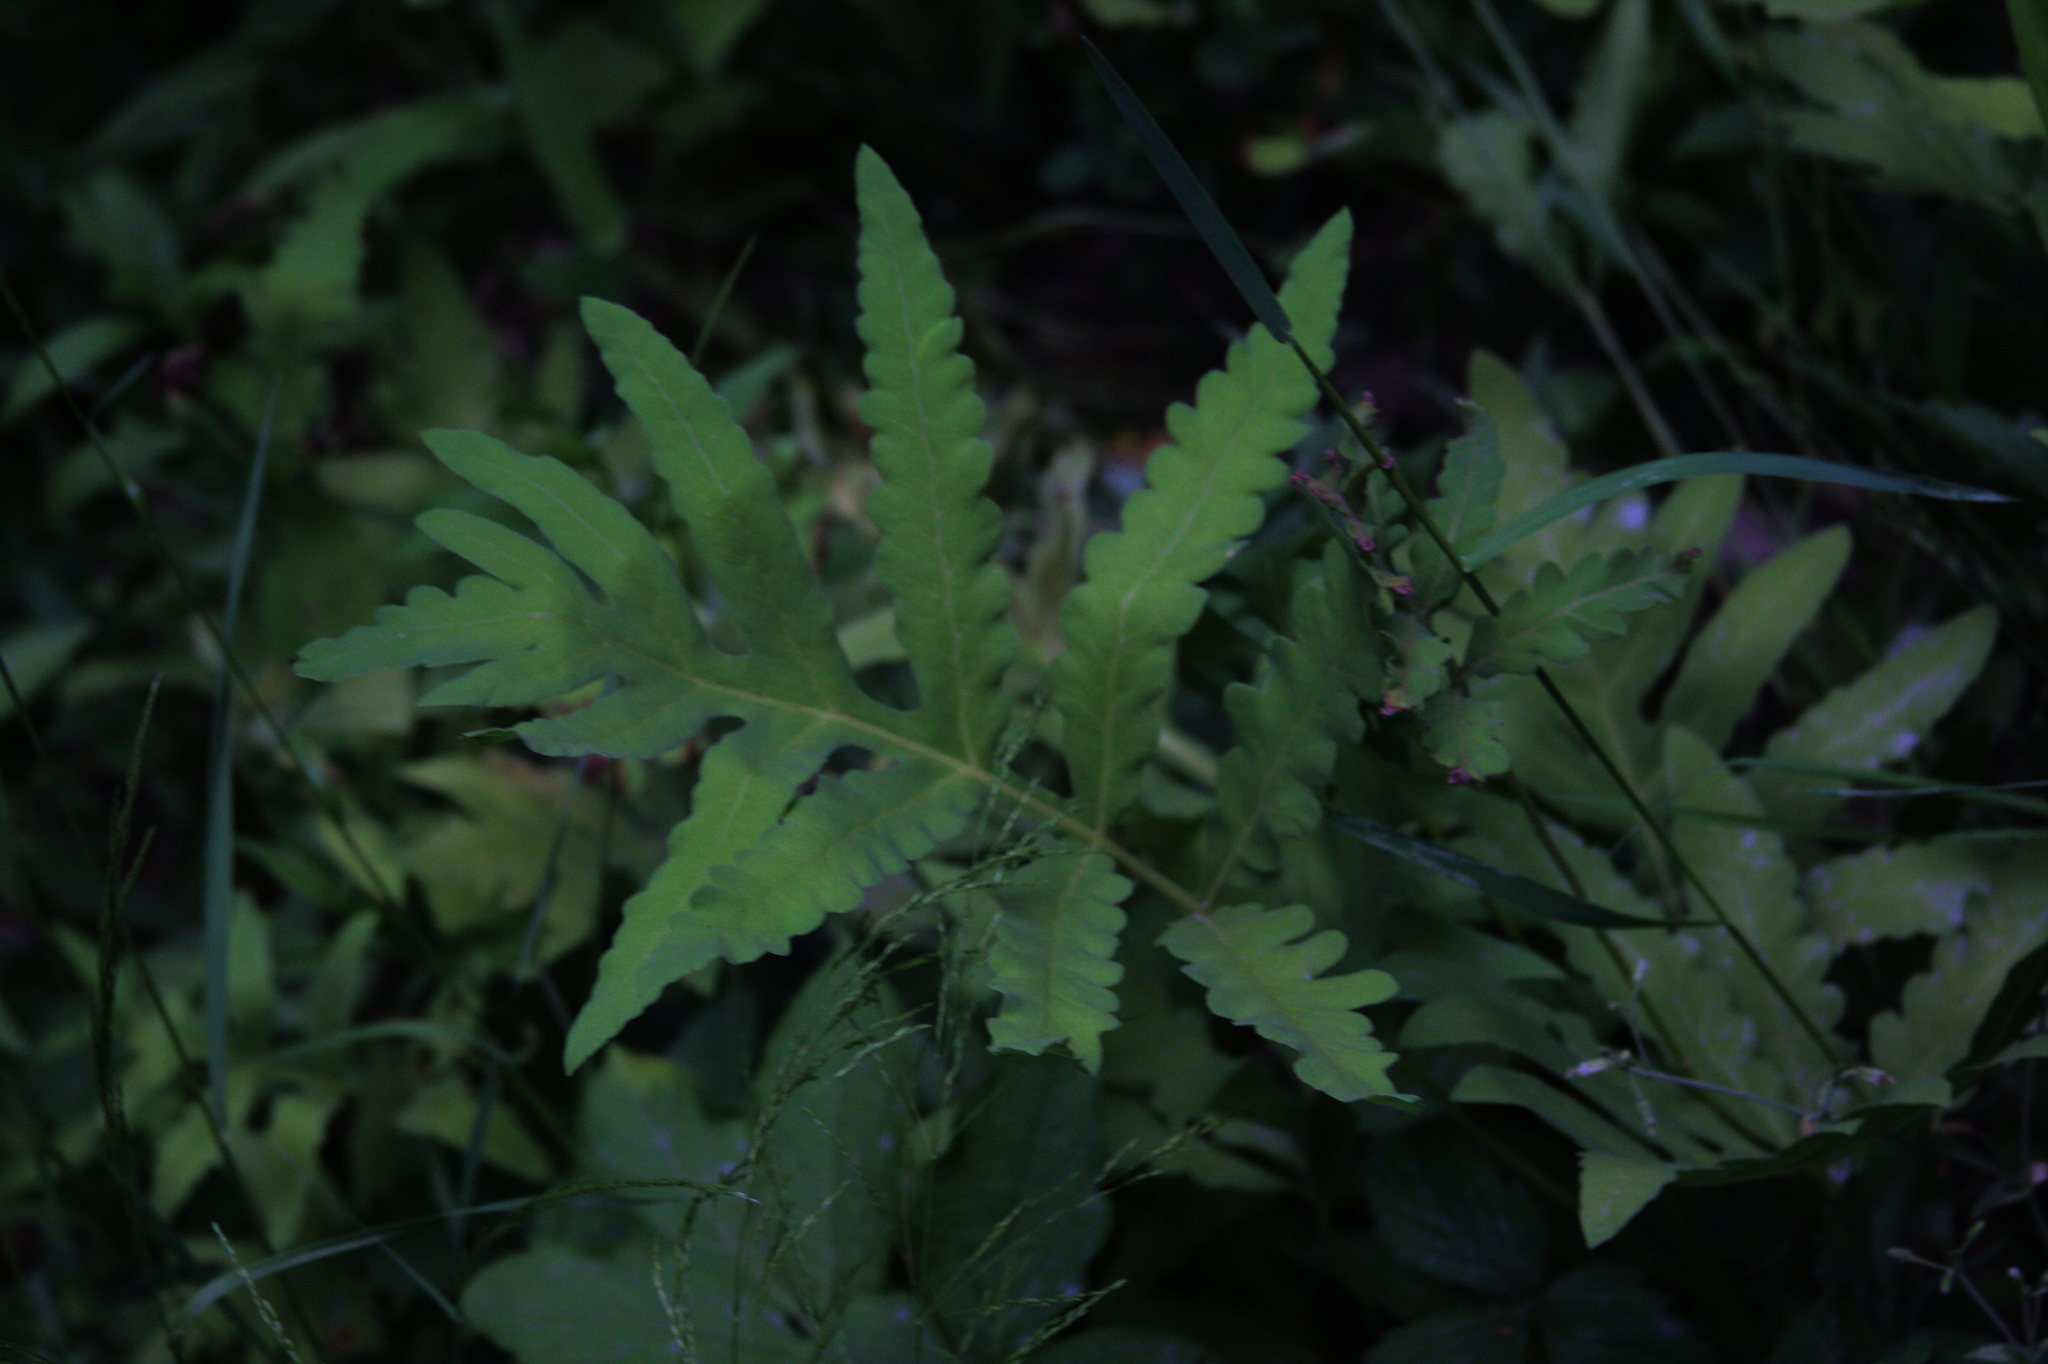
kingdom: Plantae
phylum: Tracheophyta
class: Polypodiopsida
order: Polypodiales
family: Onocleaceae
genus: Onoclea
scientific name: Onoclea sensibilis
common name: Sensitive fern
